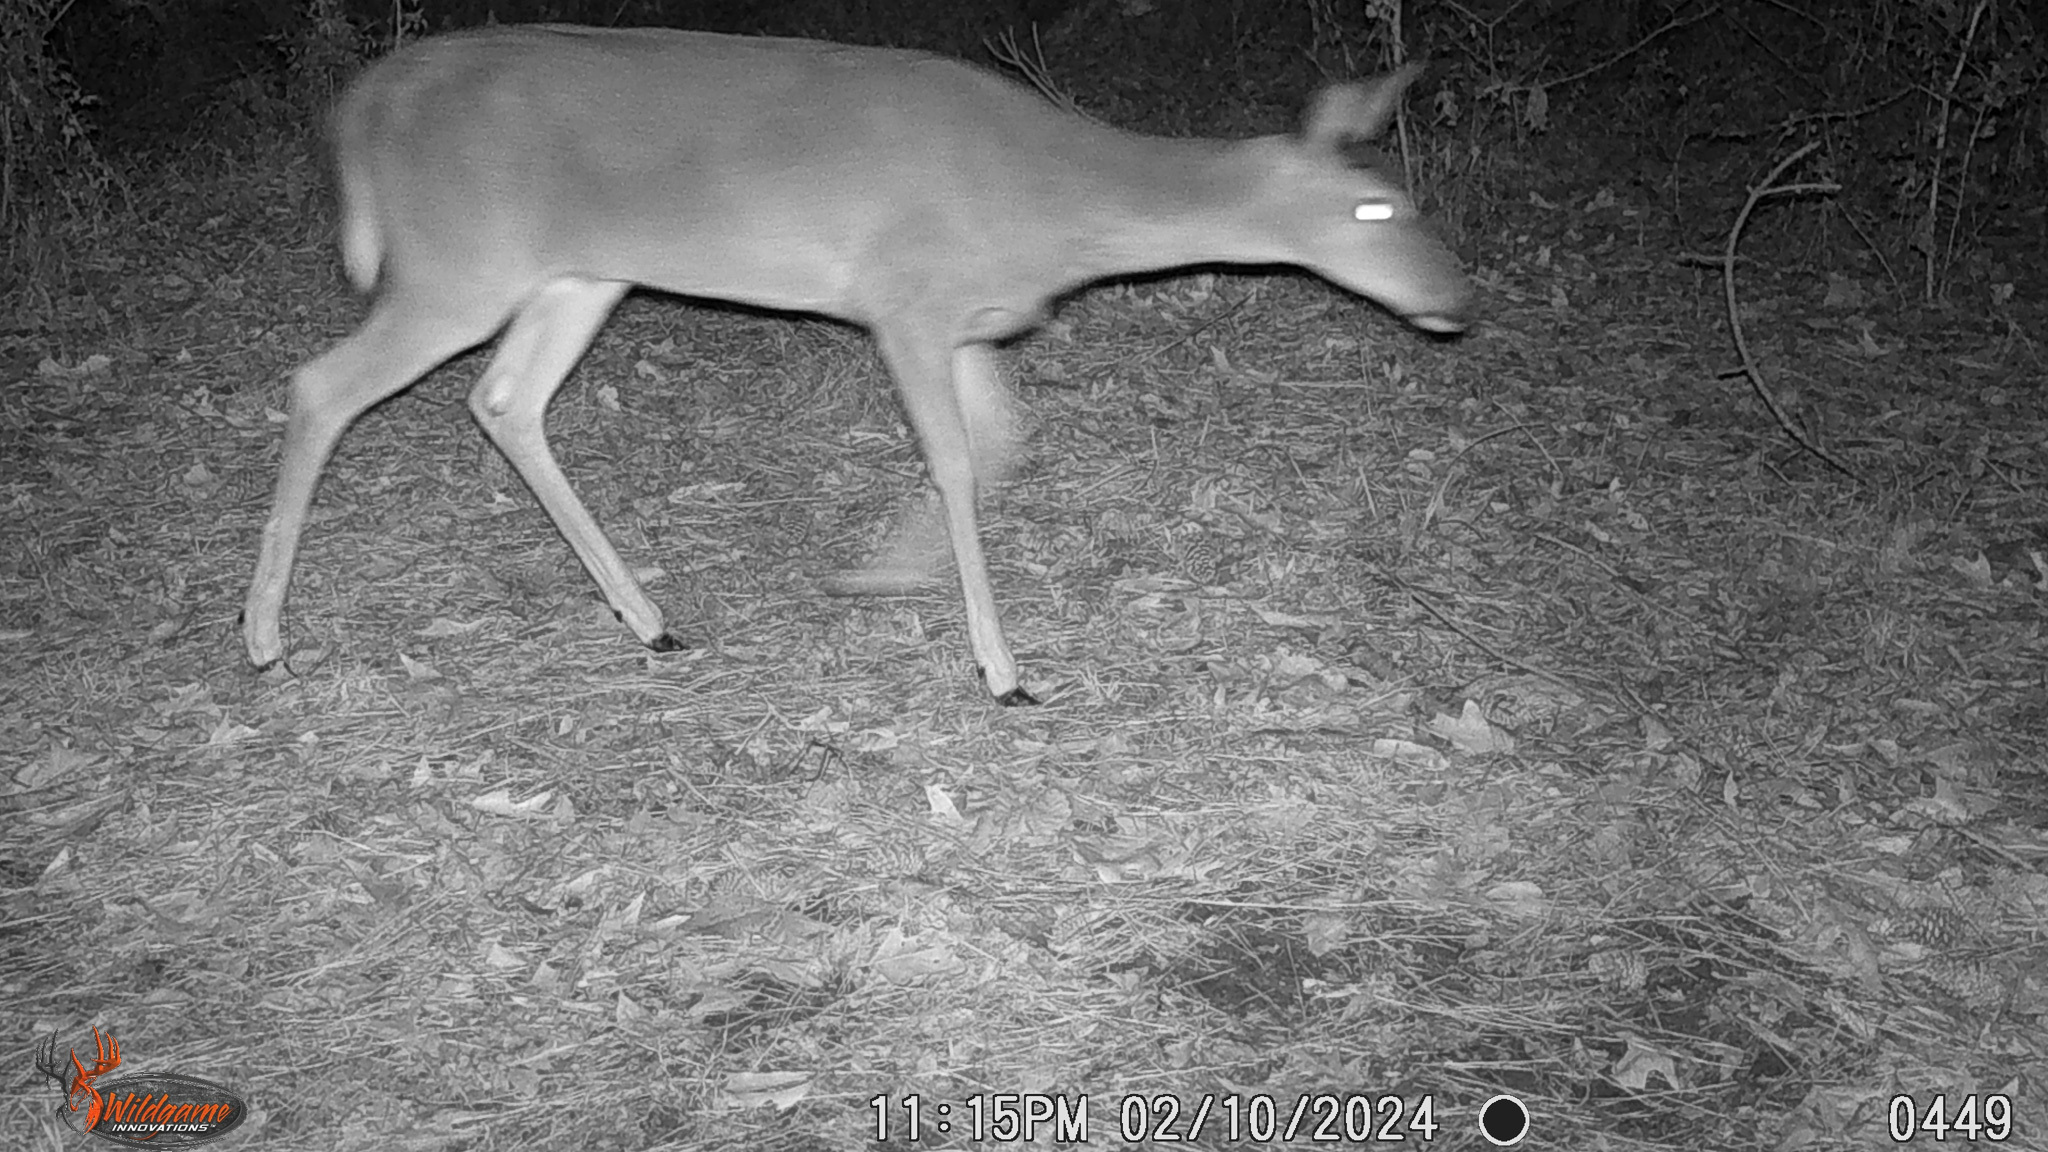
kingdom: Animalia
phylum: Chordata
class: Mammalia
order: Artiodactyla
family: Cervidae
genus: Odocoileus
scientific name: Odocoileus virginianus
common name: White-tailed deer
